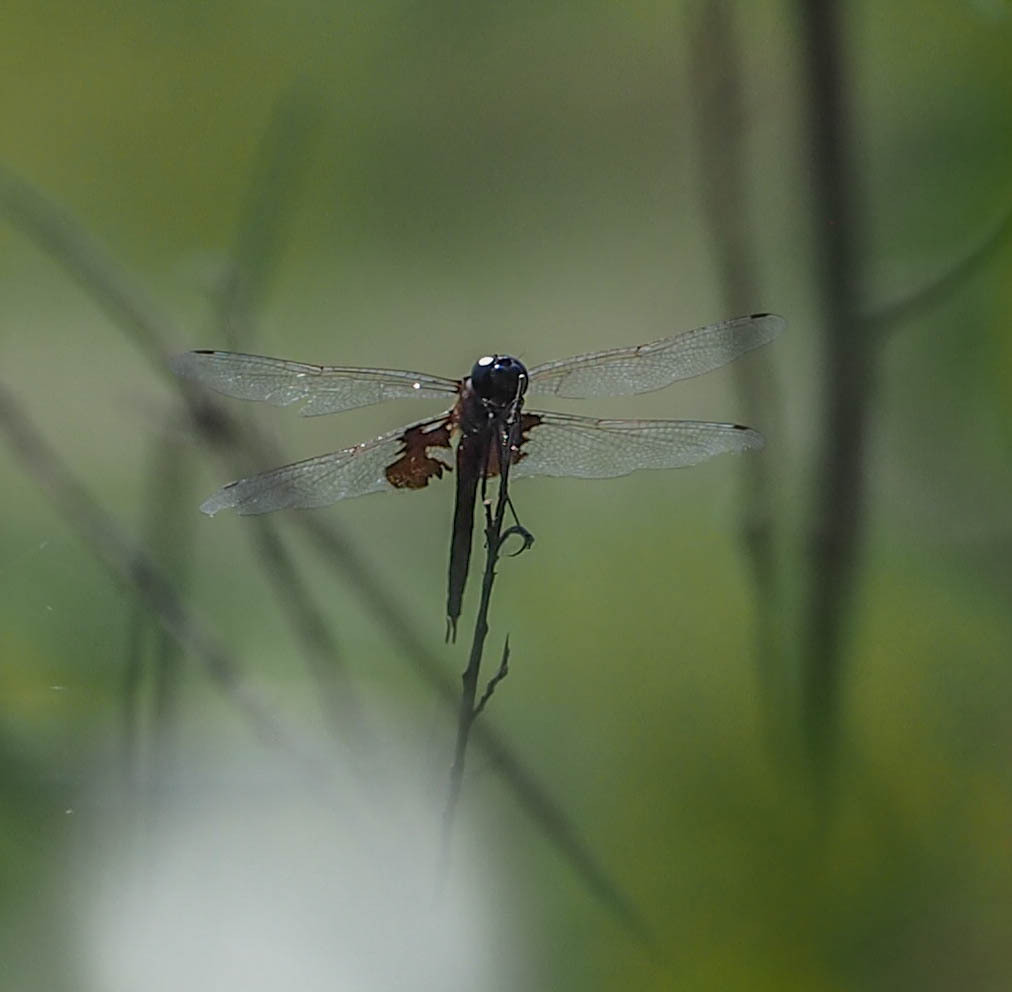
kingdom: Animalia
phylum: Arthropoda
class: Insecta
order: Odonata
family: Libellulidae
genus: Tramea
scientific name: Tramea lacerata
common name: Black saddlebags
